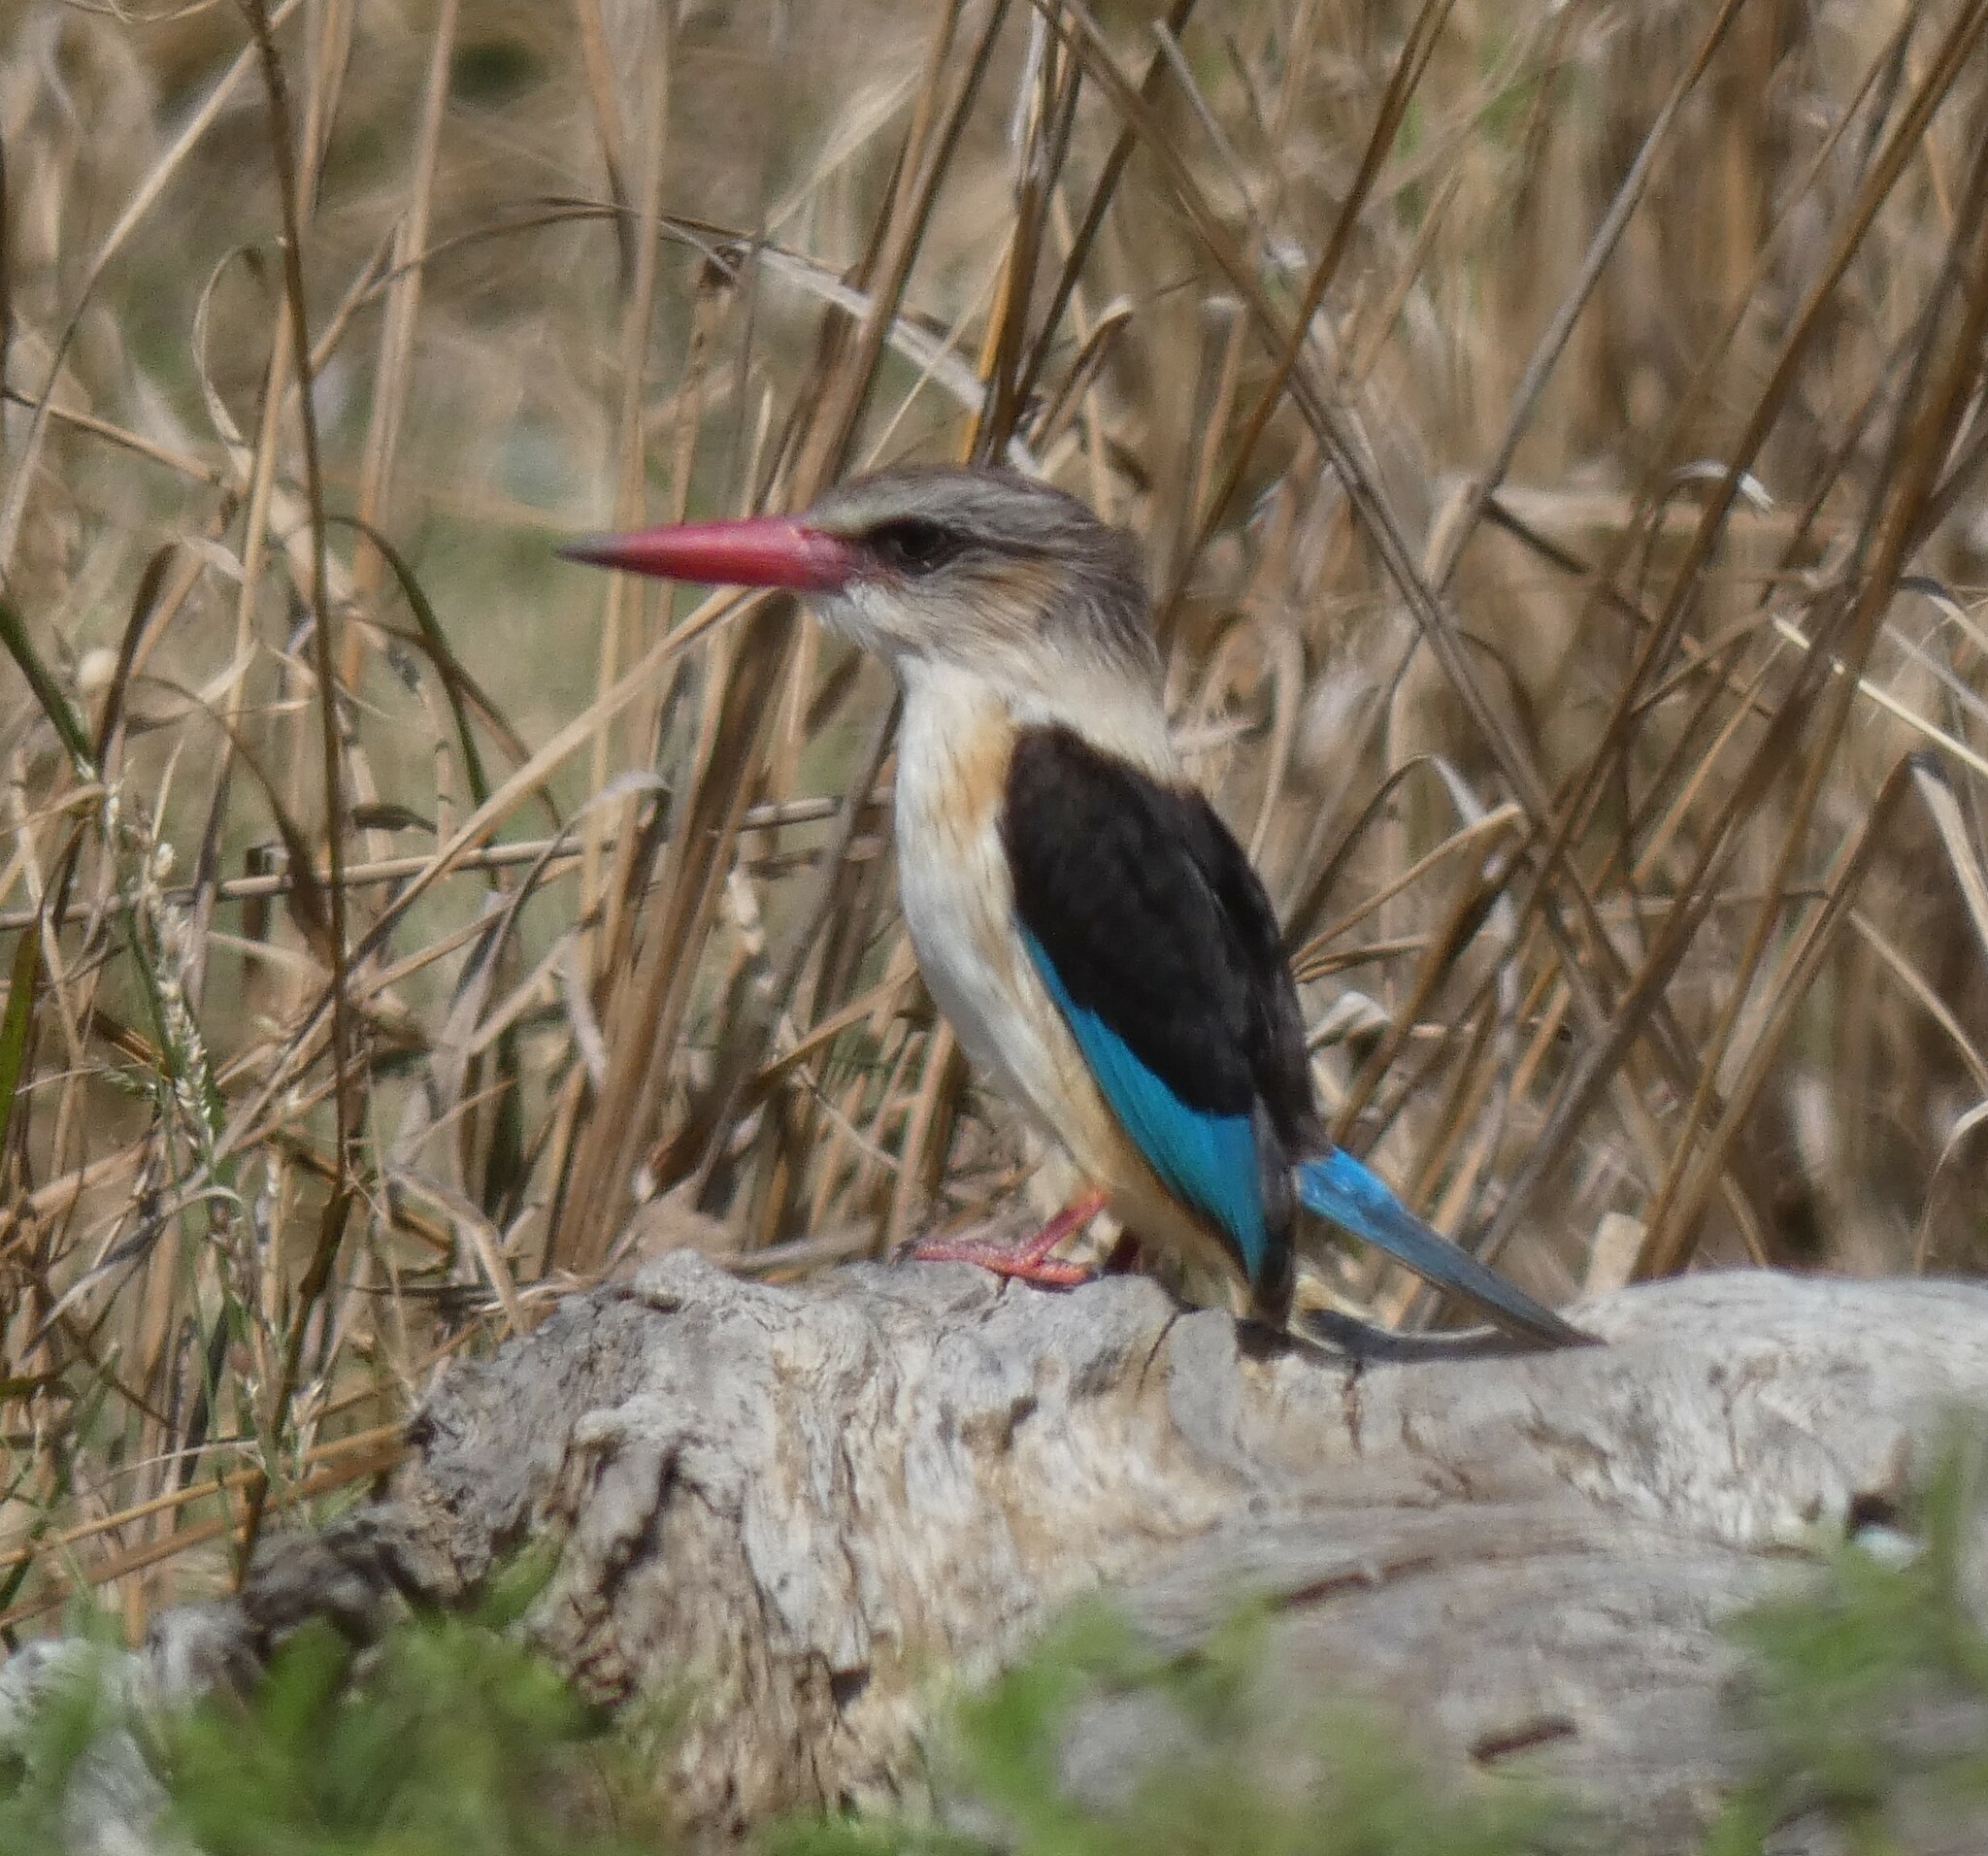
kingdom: Animalia
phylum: Chordata
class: Aves
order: Coraciiformes
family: Alcedinidae
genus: Halcyon
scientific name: Halcyon albiventris
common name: Brown-hooded kingfisher
